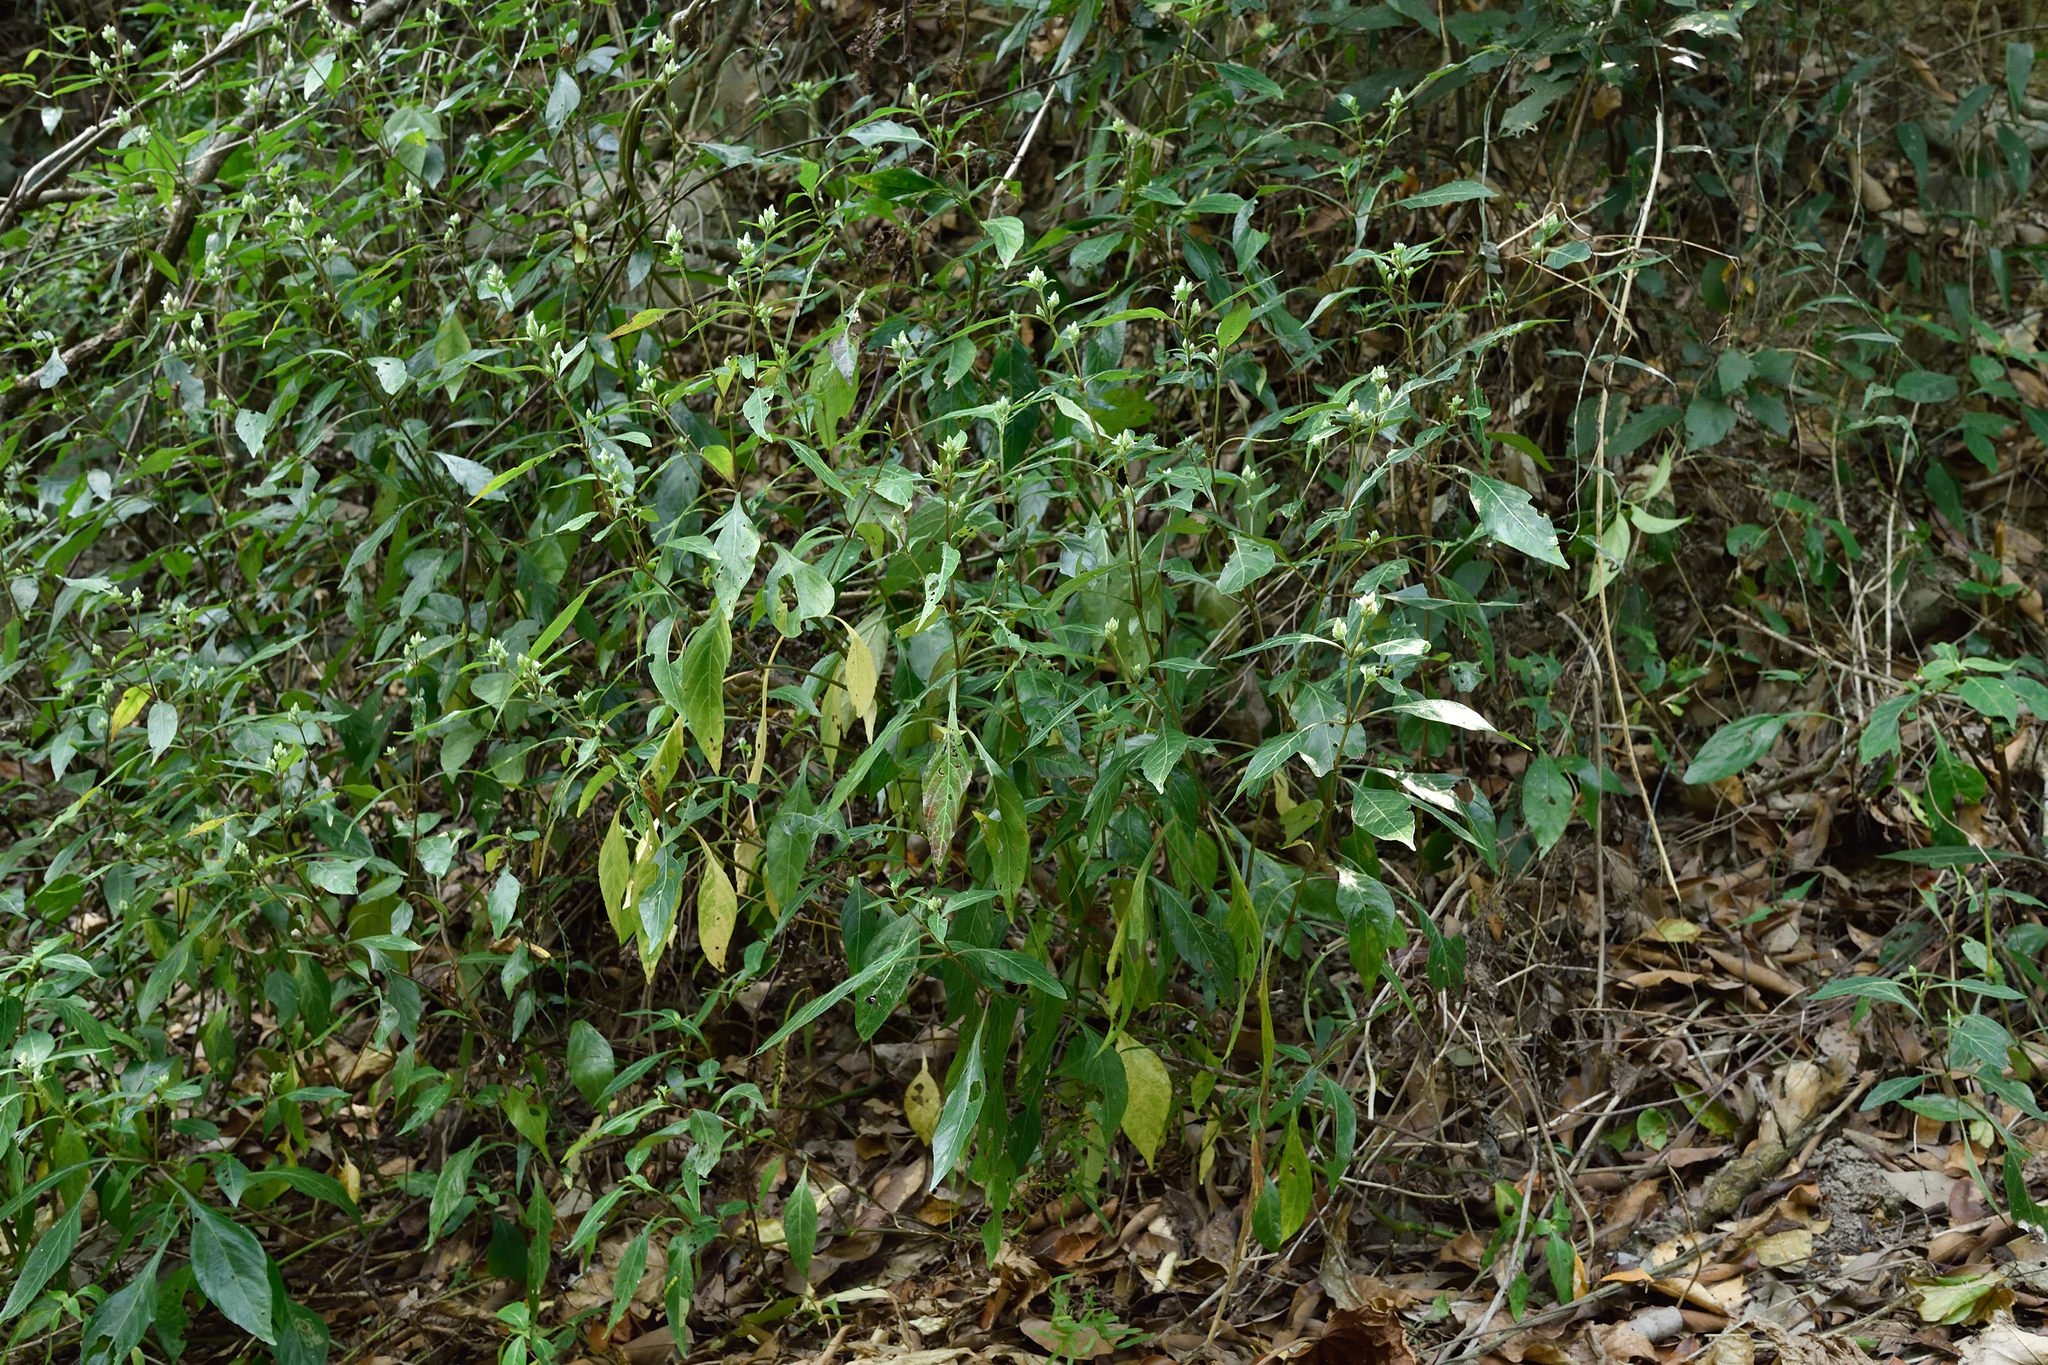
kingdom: Plantae
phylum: Tracheophyta
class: Magnoliopsida
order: Lamiales
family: Acanthaceae
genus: Lepidagathis
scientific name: Lepidagathis formosensis
